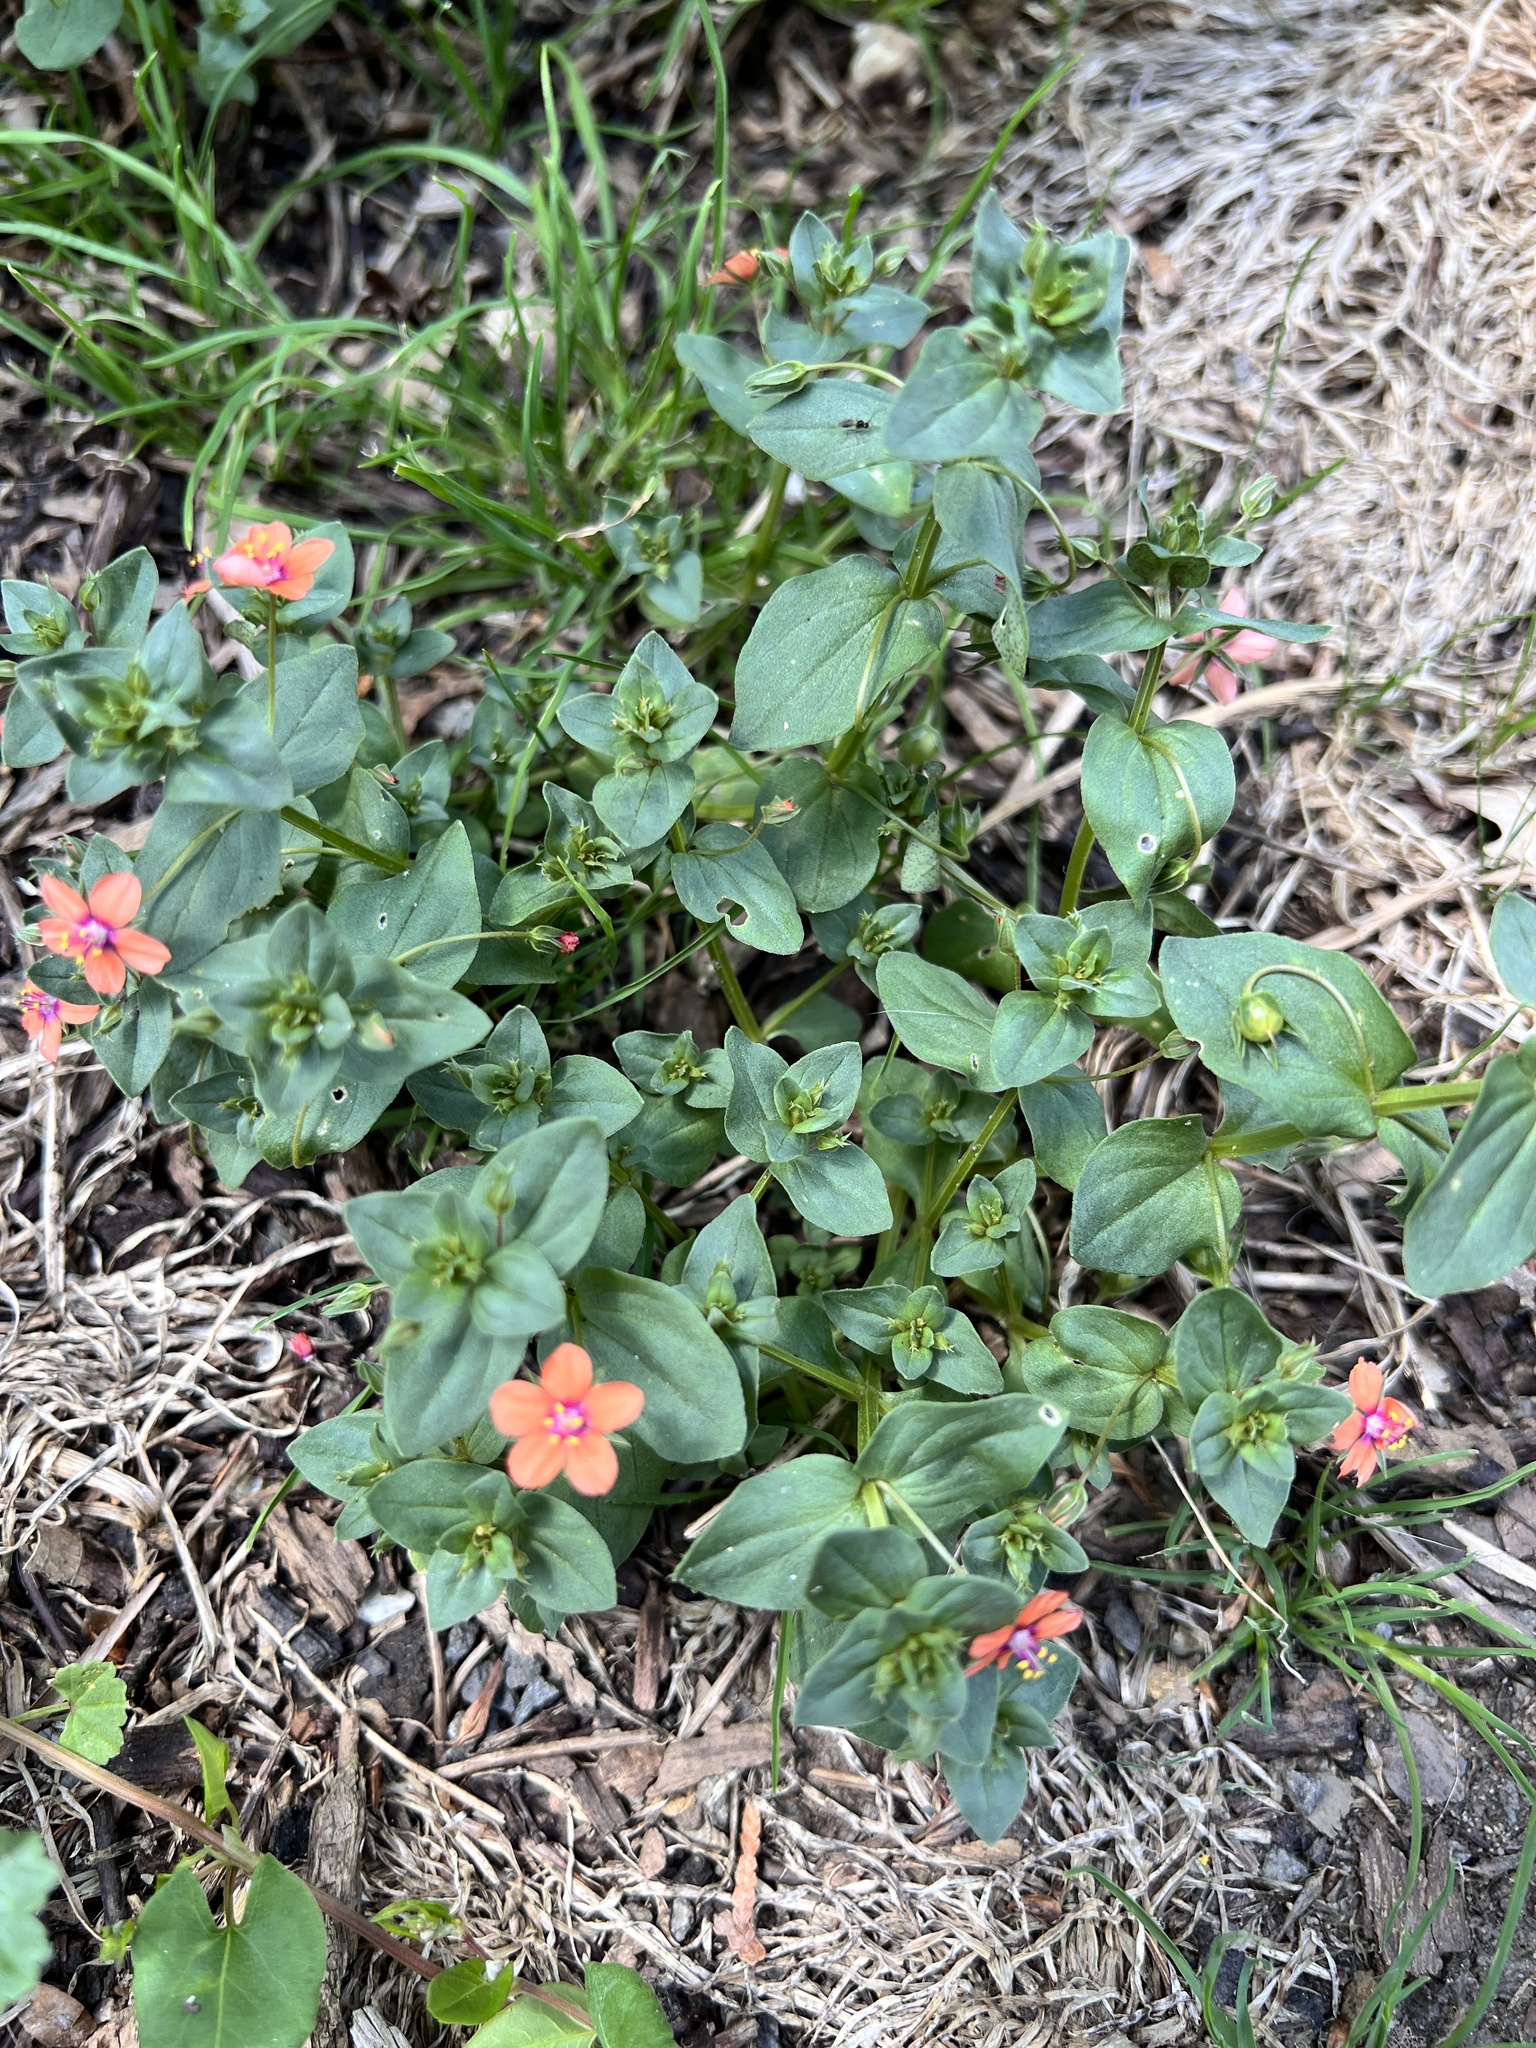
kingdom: Plantae
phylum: Tracheophyta
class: Magnoliopsida
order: Ericales
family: Primulaceae
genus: Lysimachia
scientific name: Lysimachia arvensis
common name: Scarlet pimpernel
